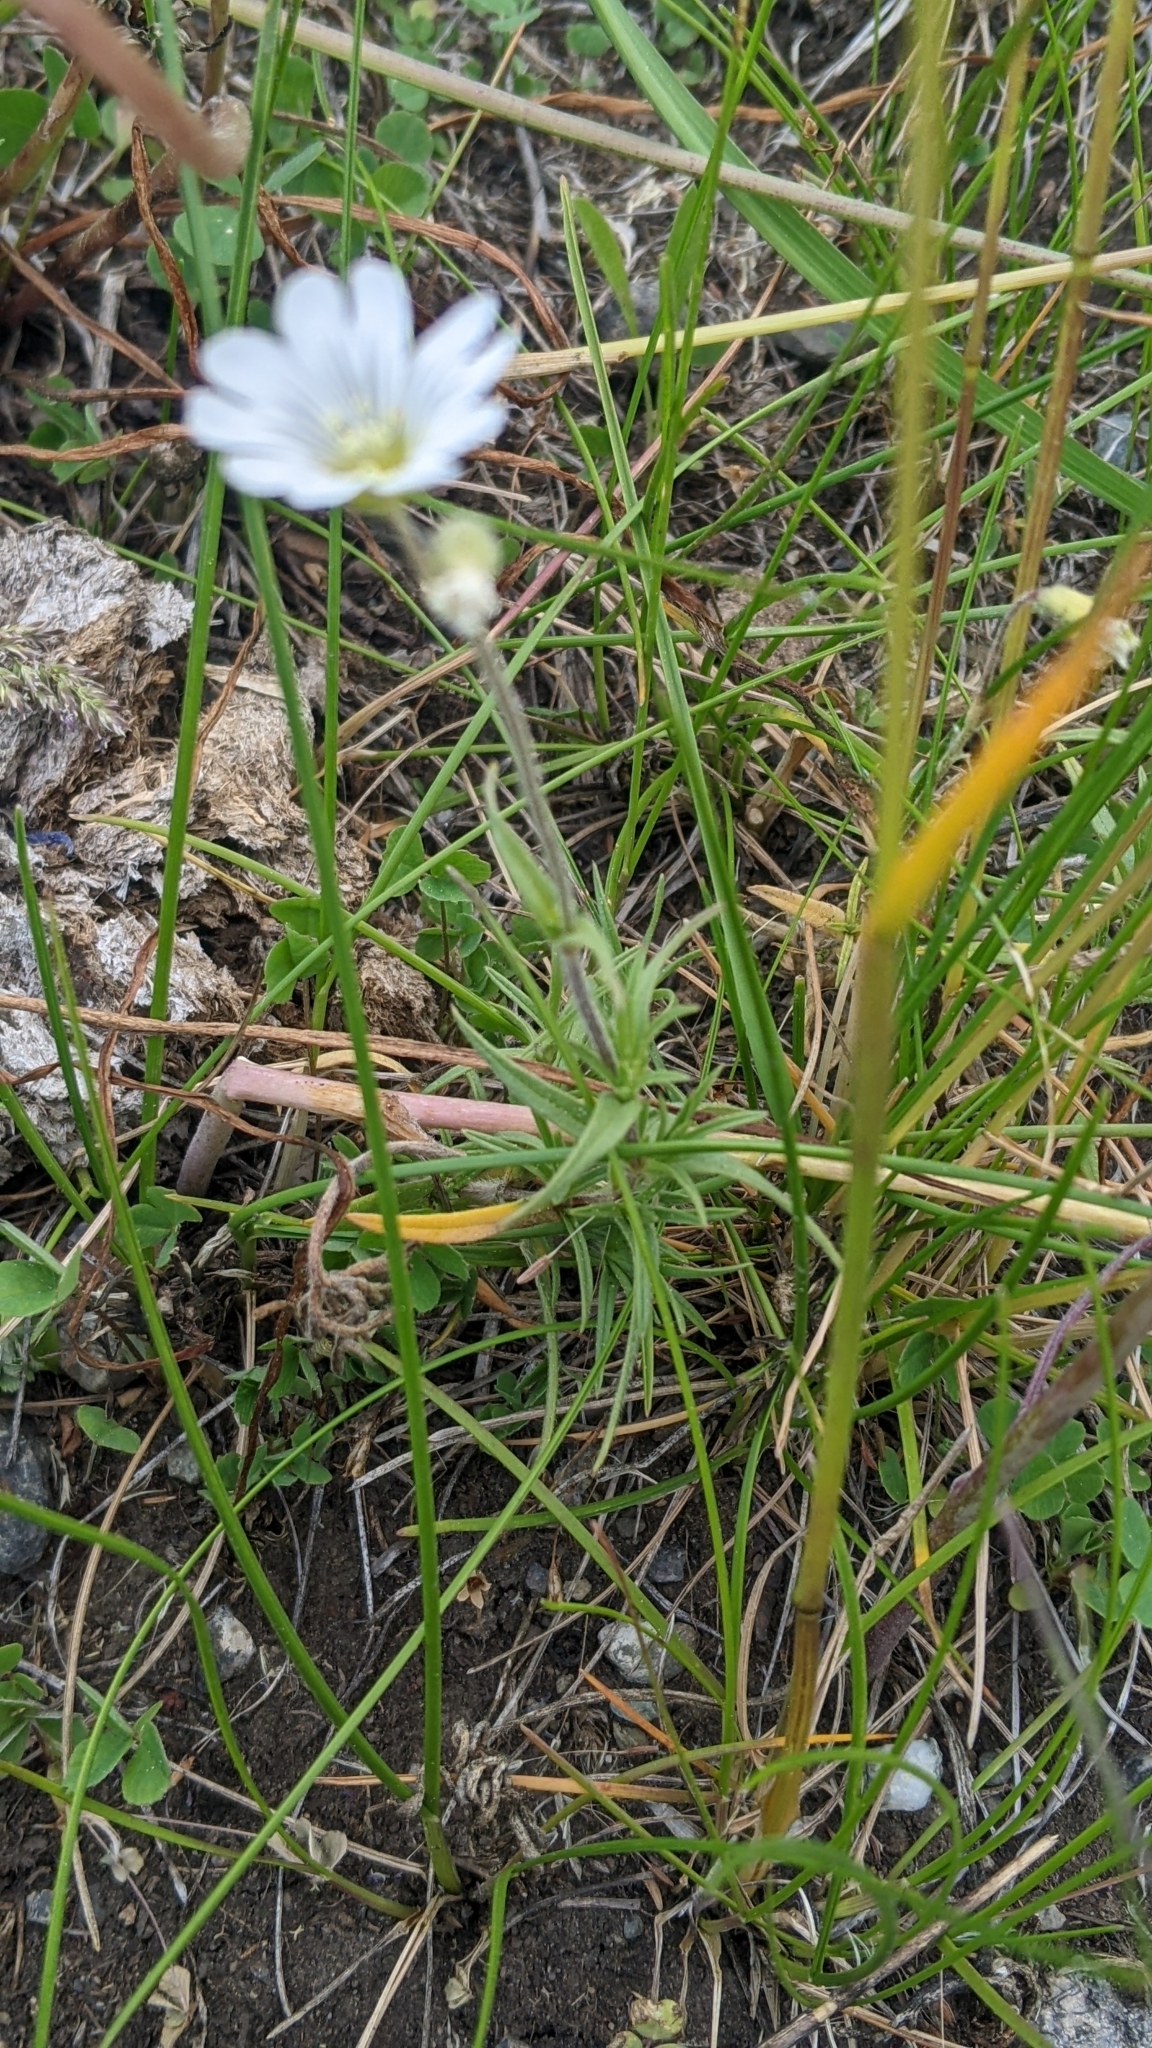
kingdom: Plantae
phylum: Tracheophyta
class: Magnoliopsida
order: Caryophyllales
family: Caryophyllaceae
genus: Cerastium
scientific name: Cerastium arvense
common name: Field mouse-ear
